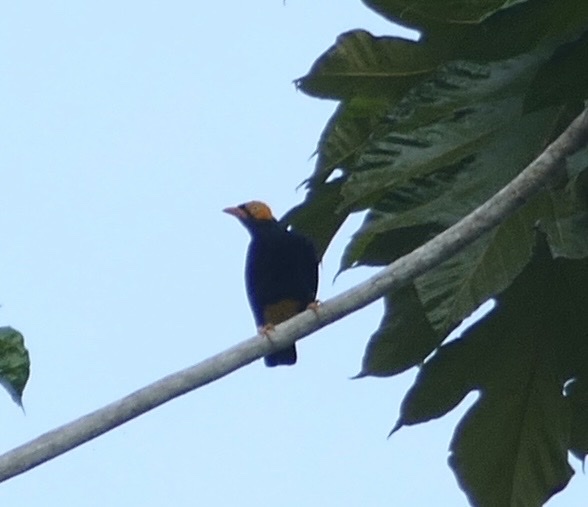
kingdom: Animalia
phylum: Chordata
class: Aves
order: Passeriformes
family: Sturnidae
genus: Mino
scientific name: Mino dumontii
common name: Yellow-faced myna
